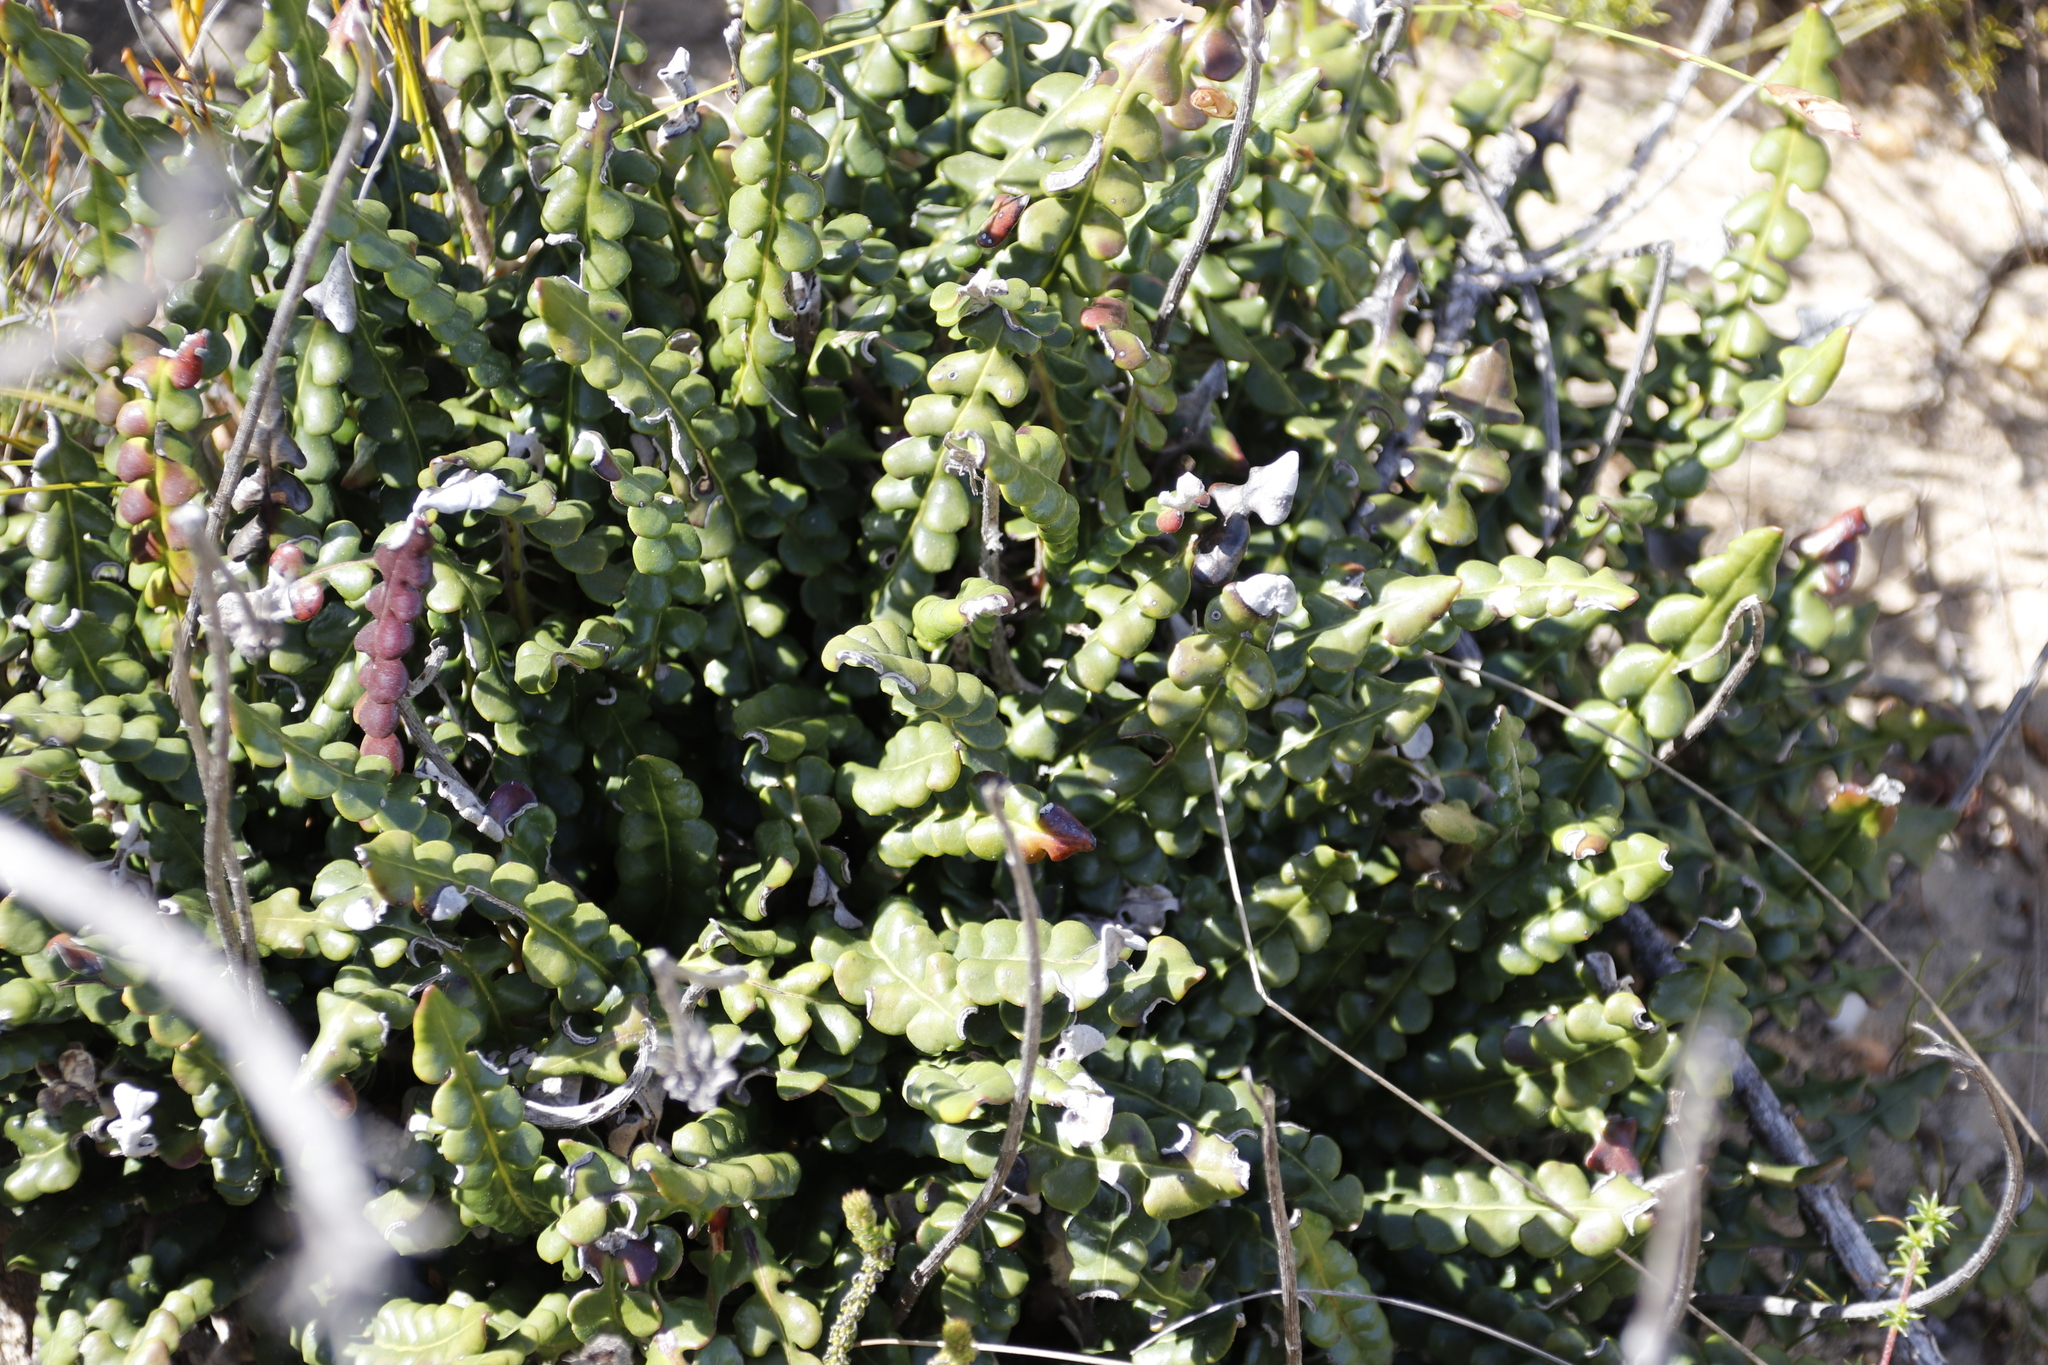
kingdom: Plantae
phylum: Tracheophyta
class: Magnoliopsida
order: Asterales
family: Asteraceae
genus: Gerbera
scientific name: Gerbera linnaei
